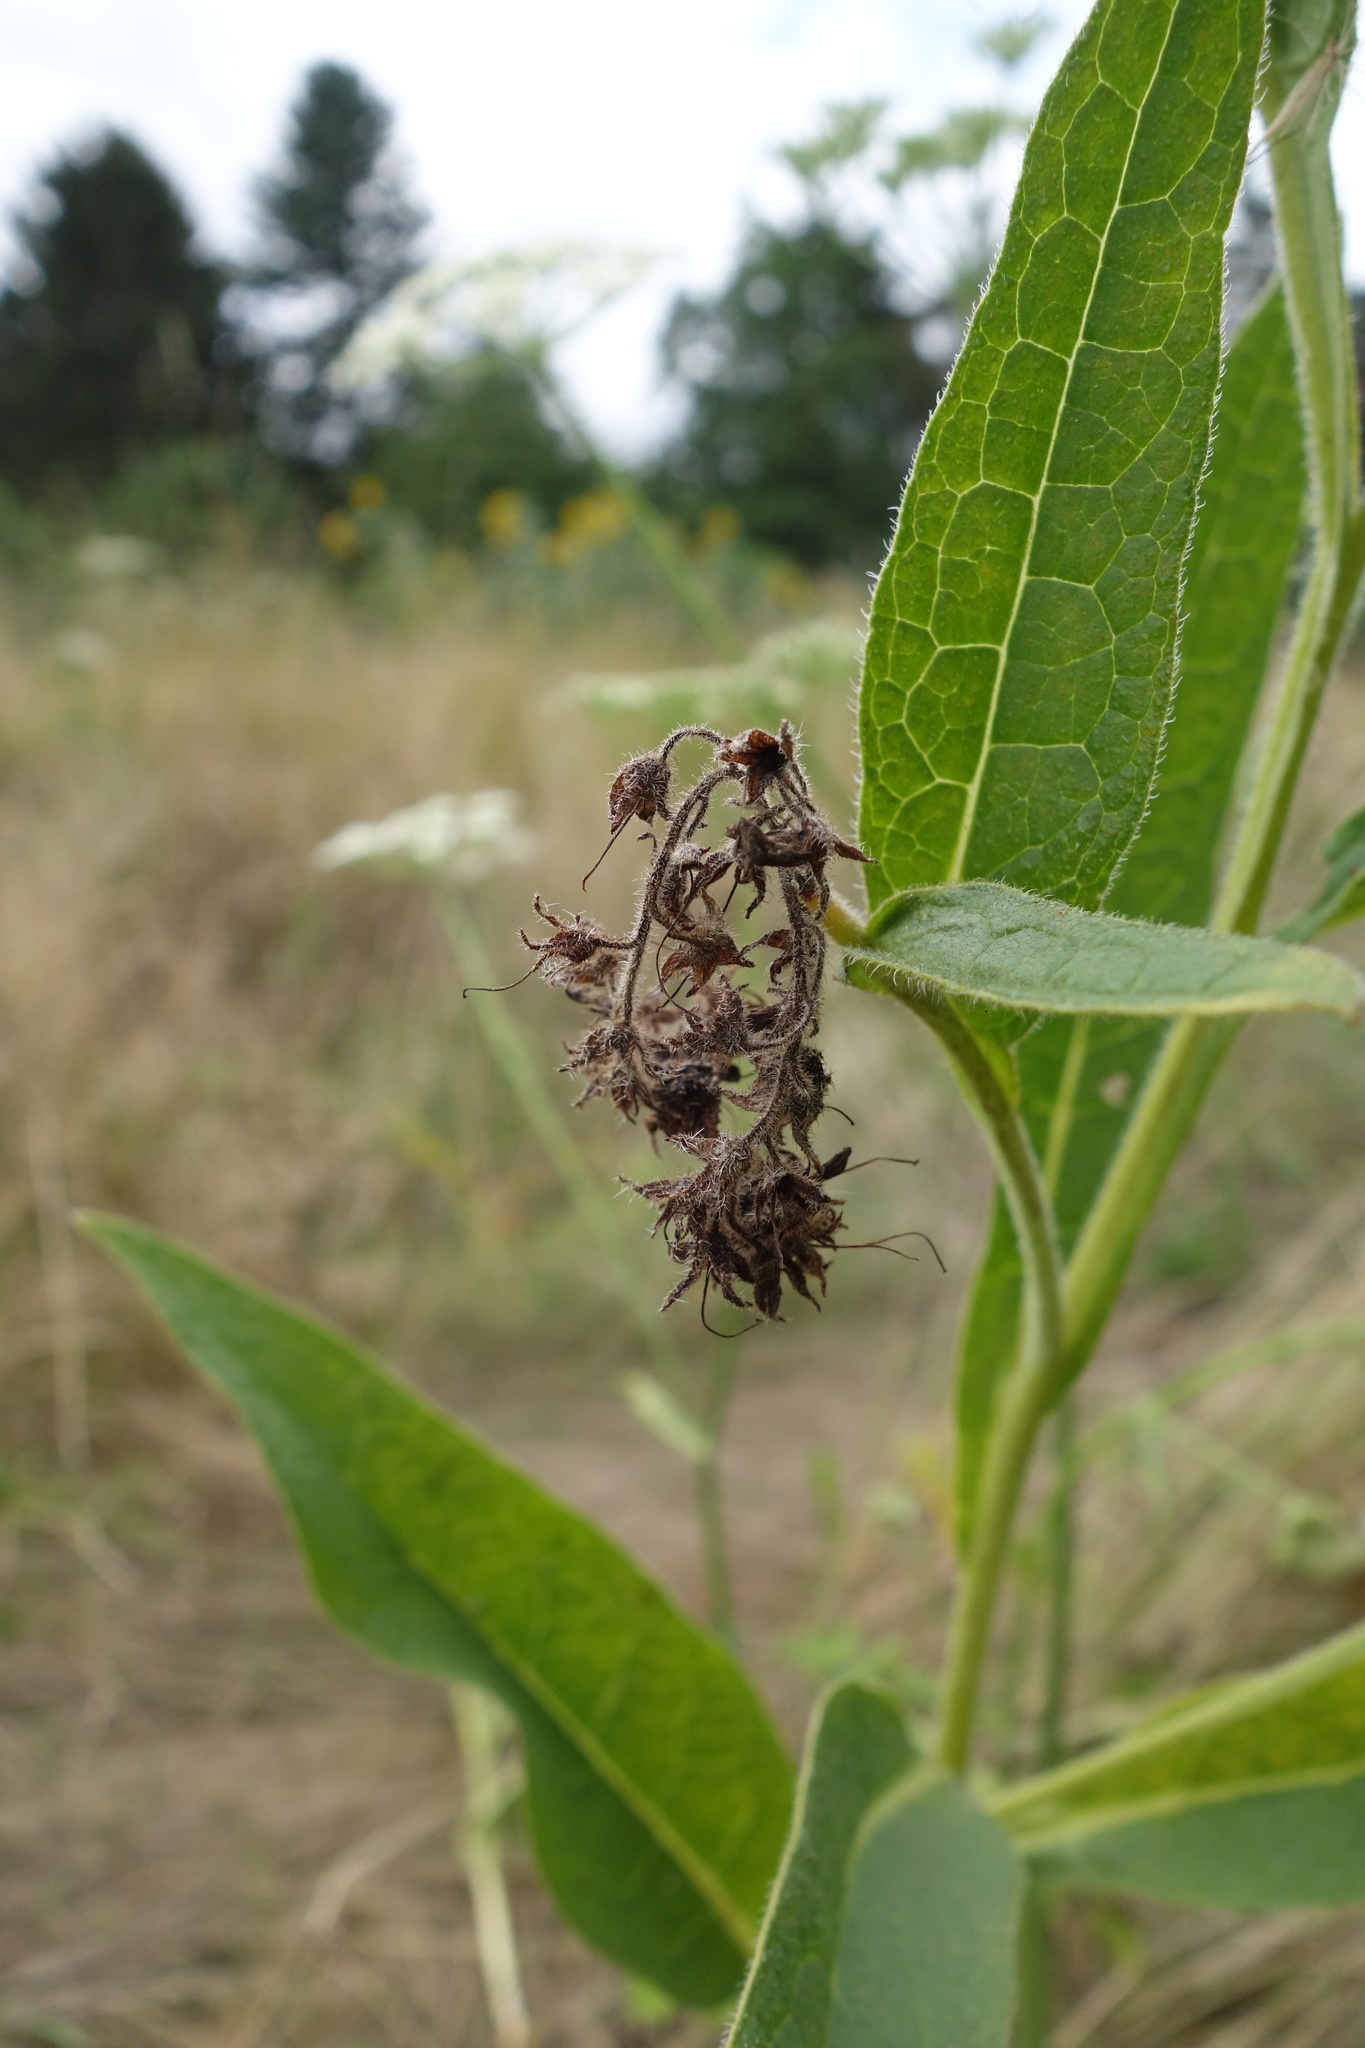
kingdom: Plantae
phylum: Tracheophyta
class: Magnoliopsida
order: Boraginales
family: Boraginaceae
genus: Symphytum
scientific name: Symphytum officinale
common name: Common comfrey
